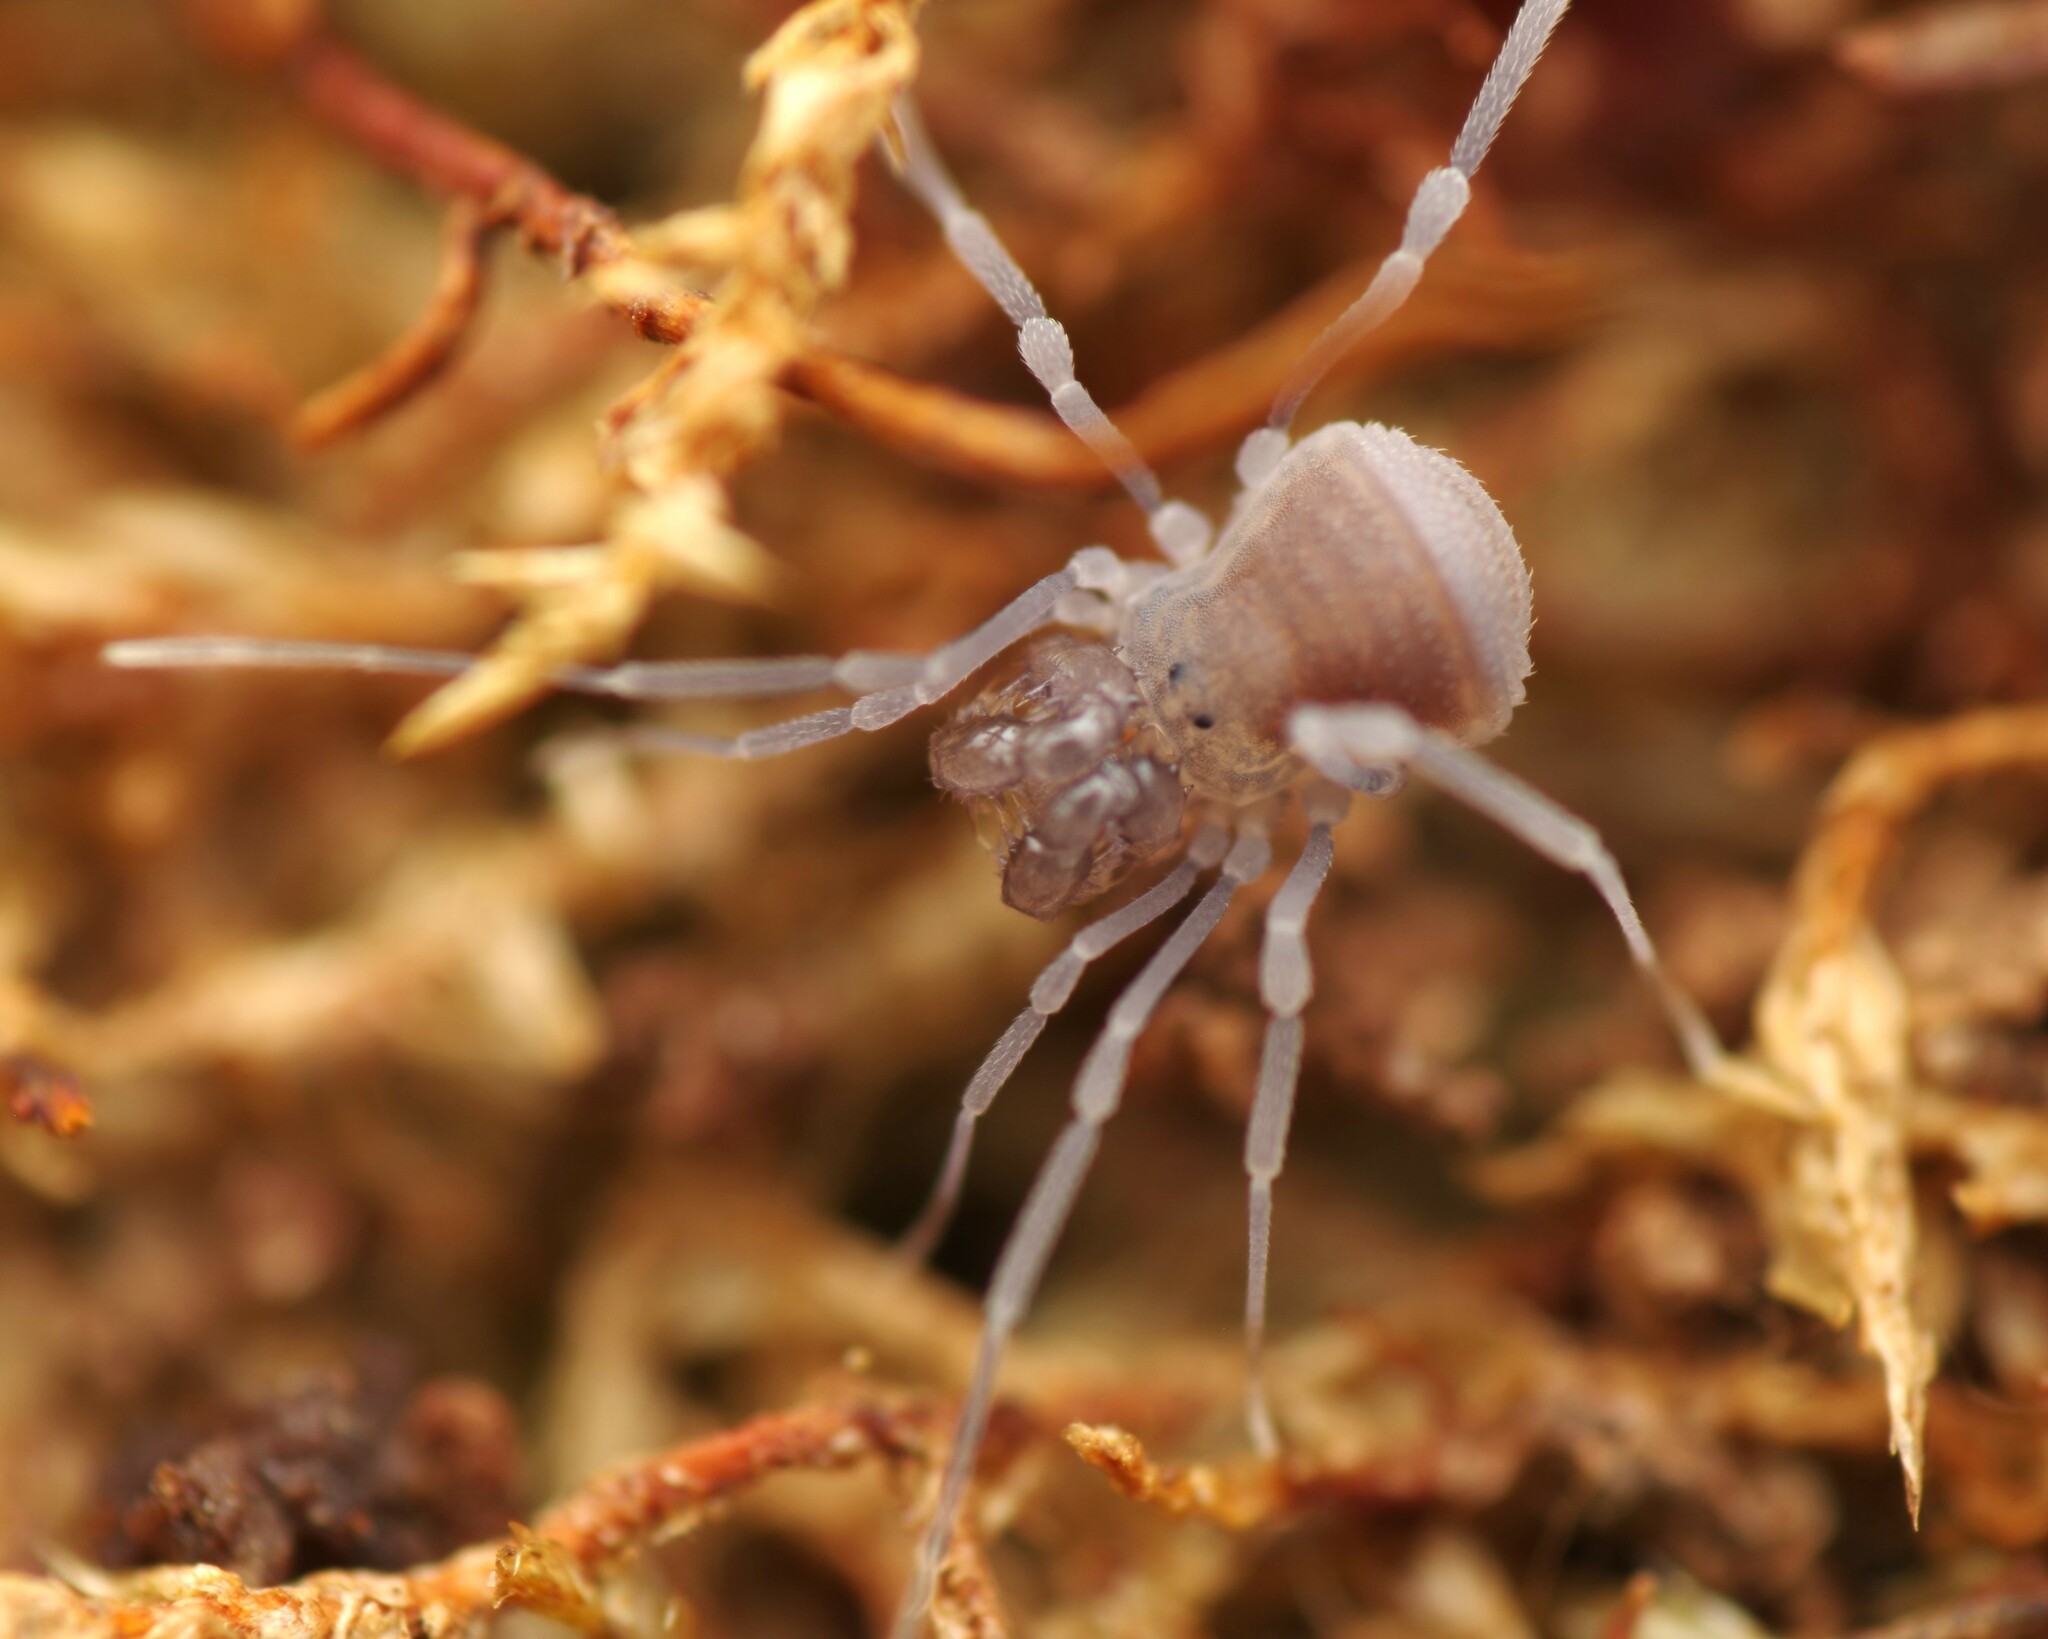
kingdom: Animalia
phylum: Arthropoda
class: Arachnida
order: Opiliones
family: Cladonychiidae
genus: Holoscotolemon
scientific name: Holoscotolemon querilhaci
